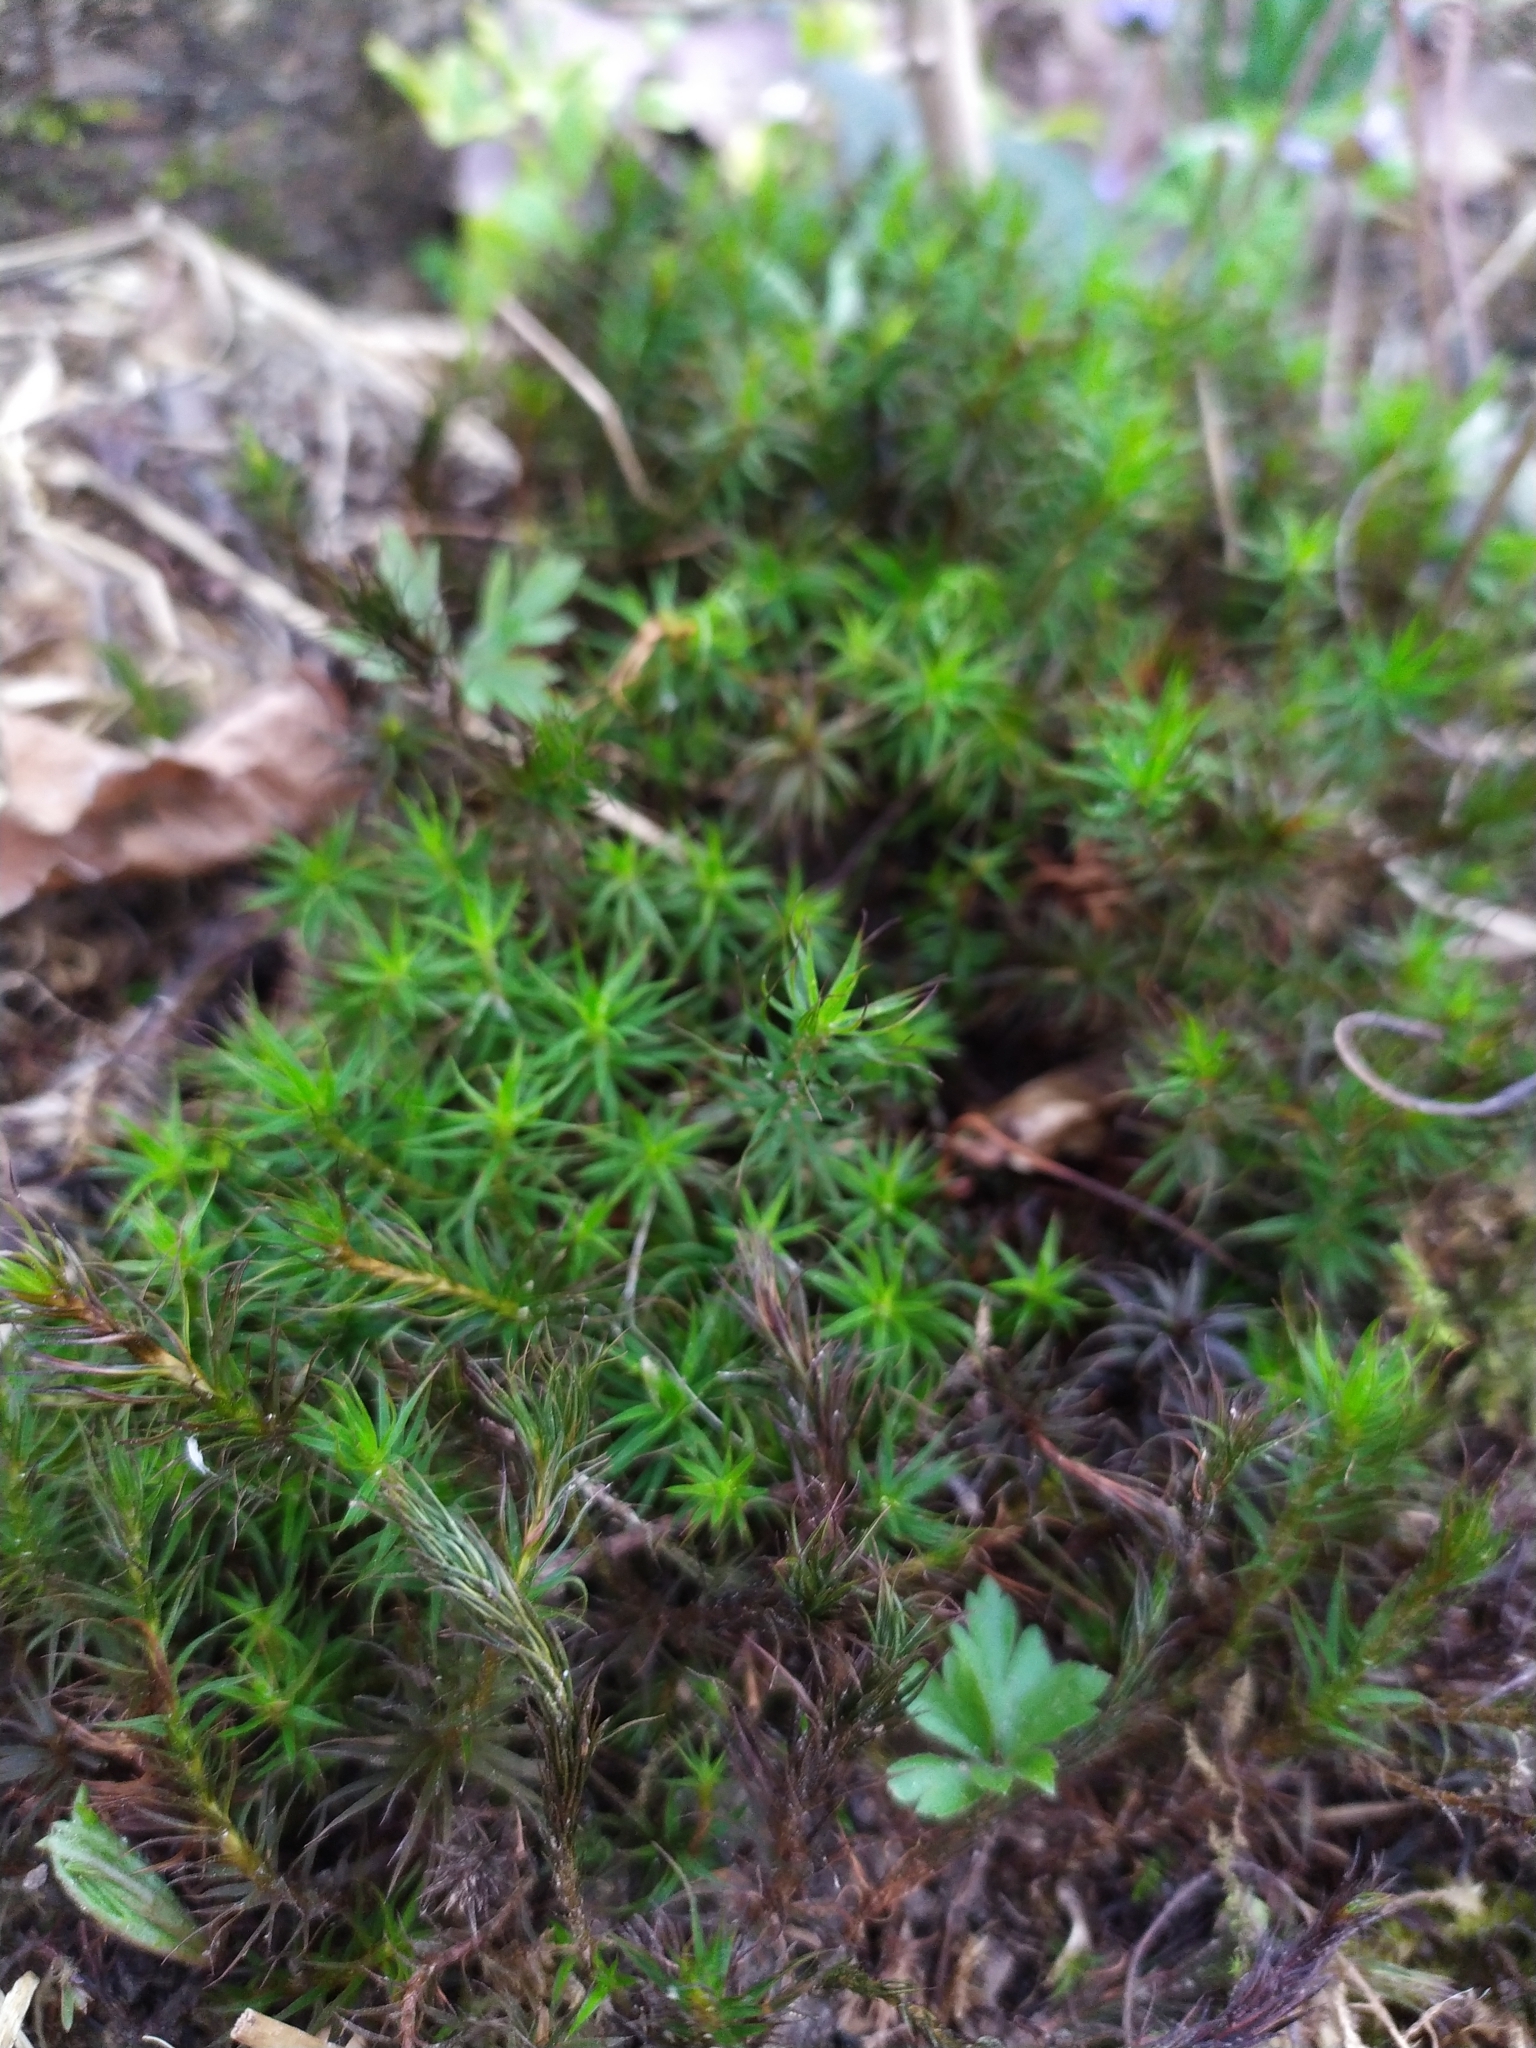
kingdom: Plantae
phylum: Bryophyta
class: Polytrichopsida
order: Polytrichales
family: Polytrichaceae
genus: Polytrichum
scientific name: Polytrichum formosum
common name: Bank haircap moss
